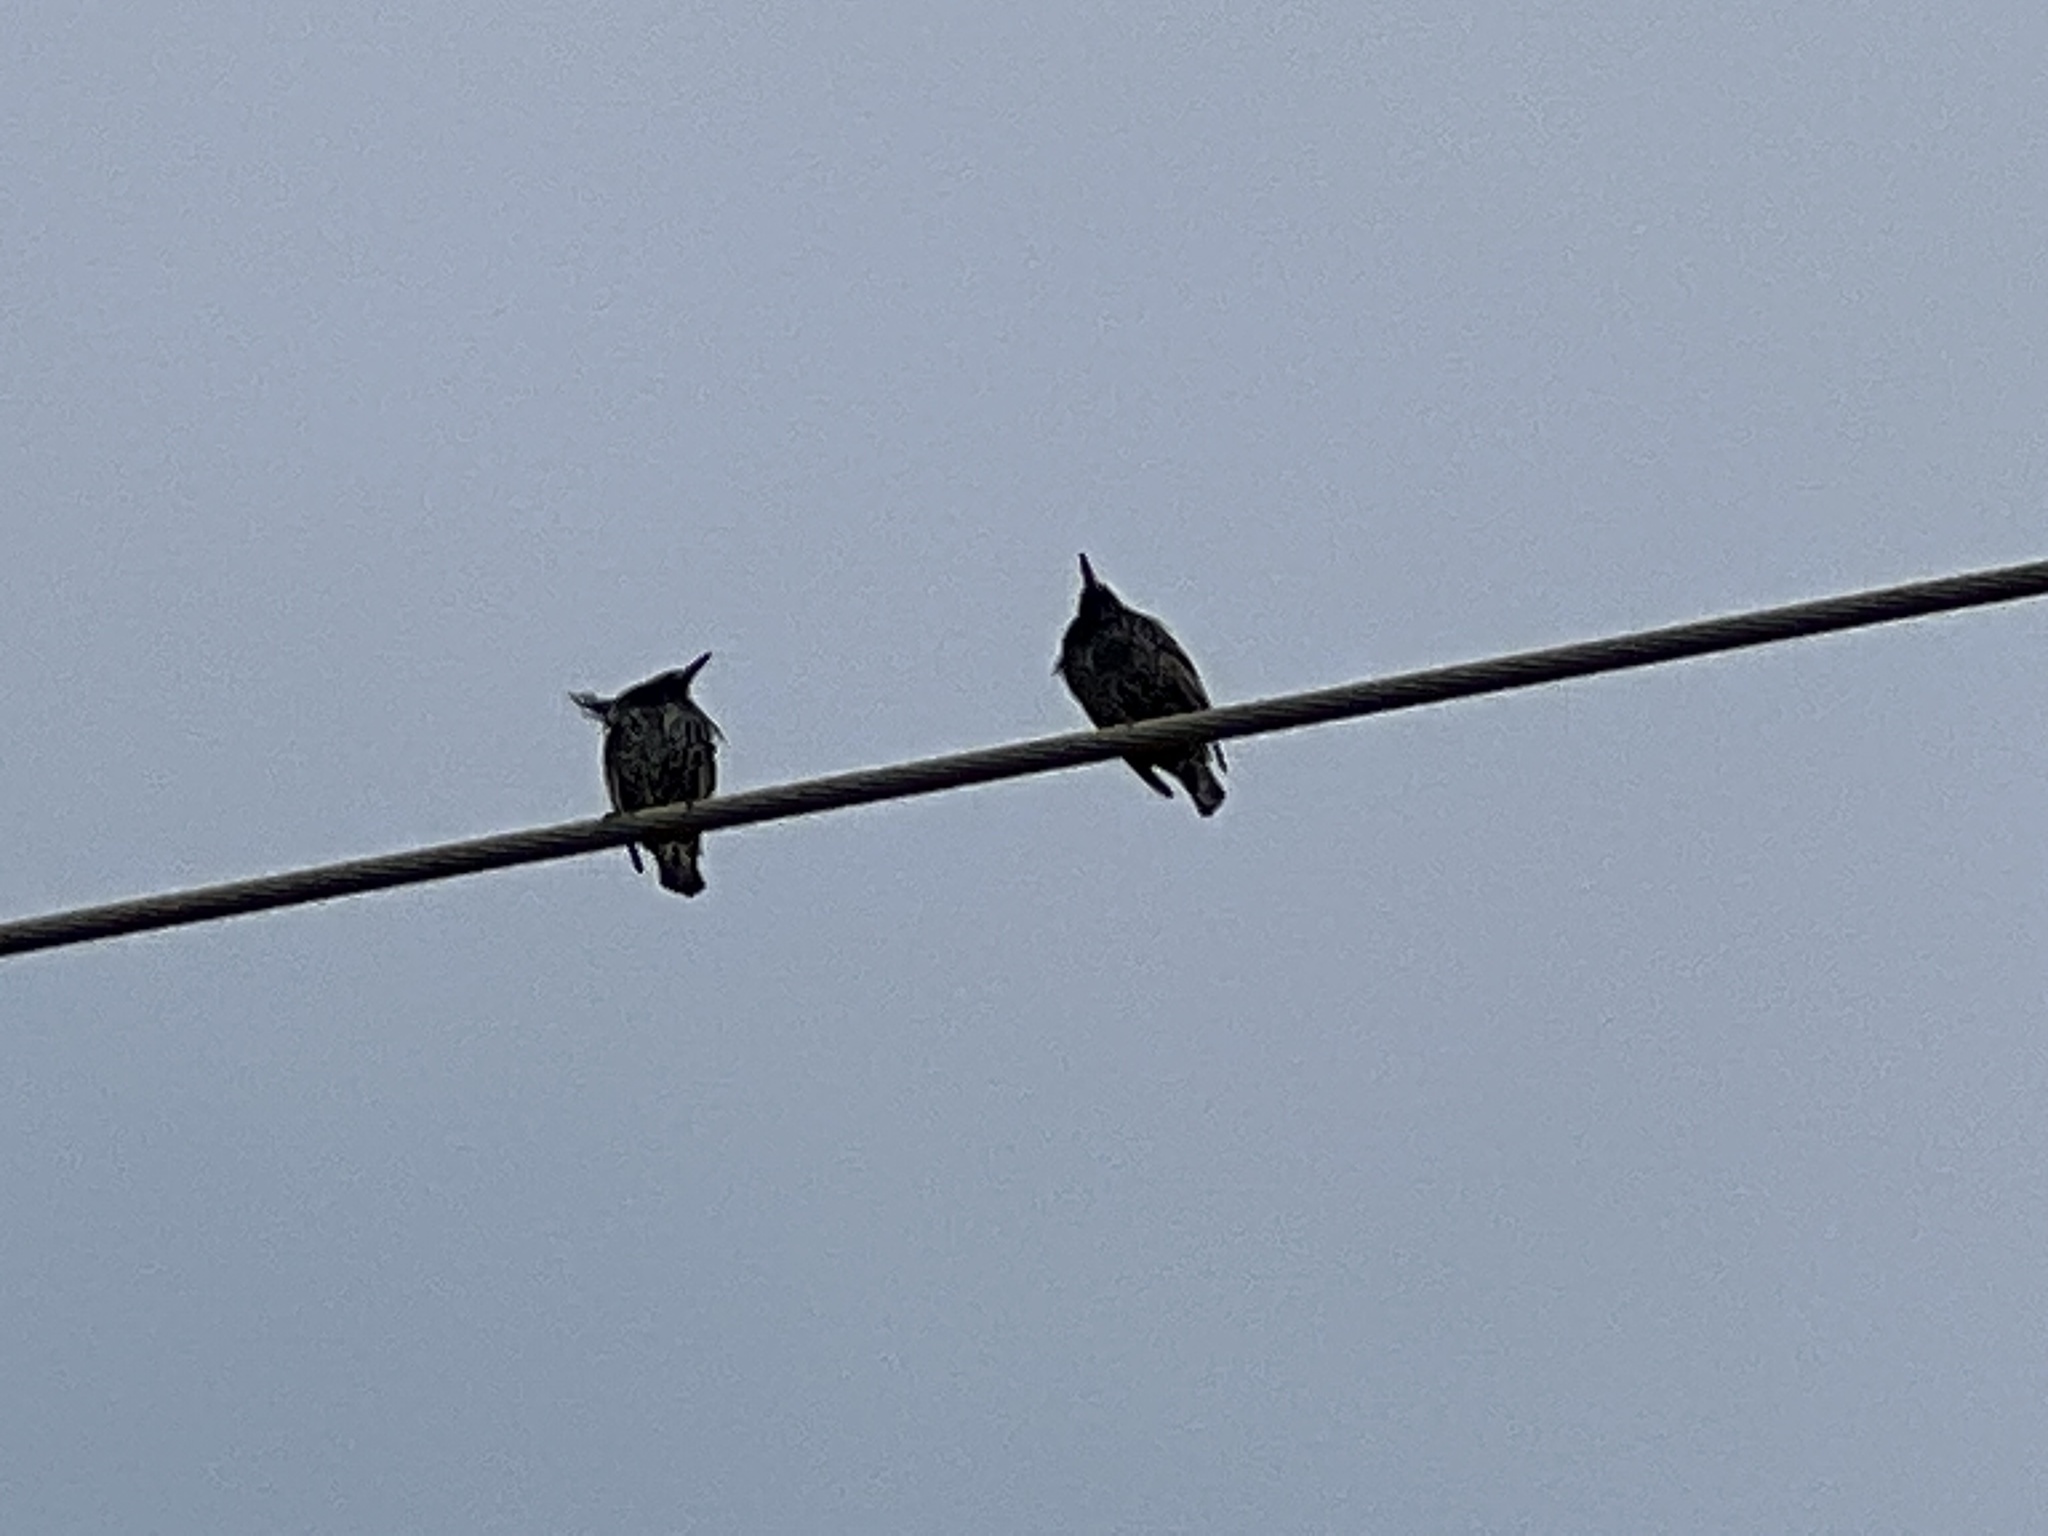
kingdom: Animalia
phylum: Chordata
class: Aves
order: Passeriformes
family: Sturnidae
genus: Sturnus
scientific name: Sturnus vulgaris
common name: Common starling
